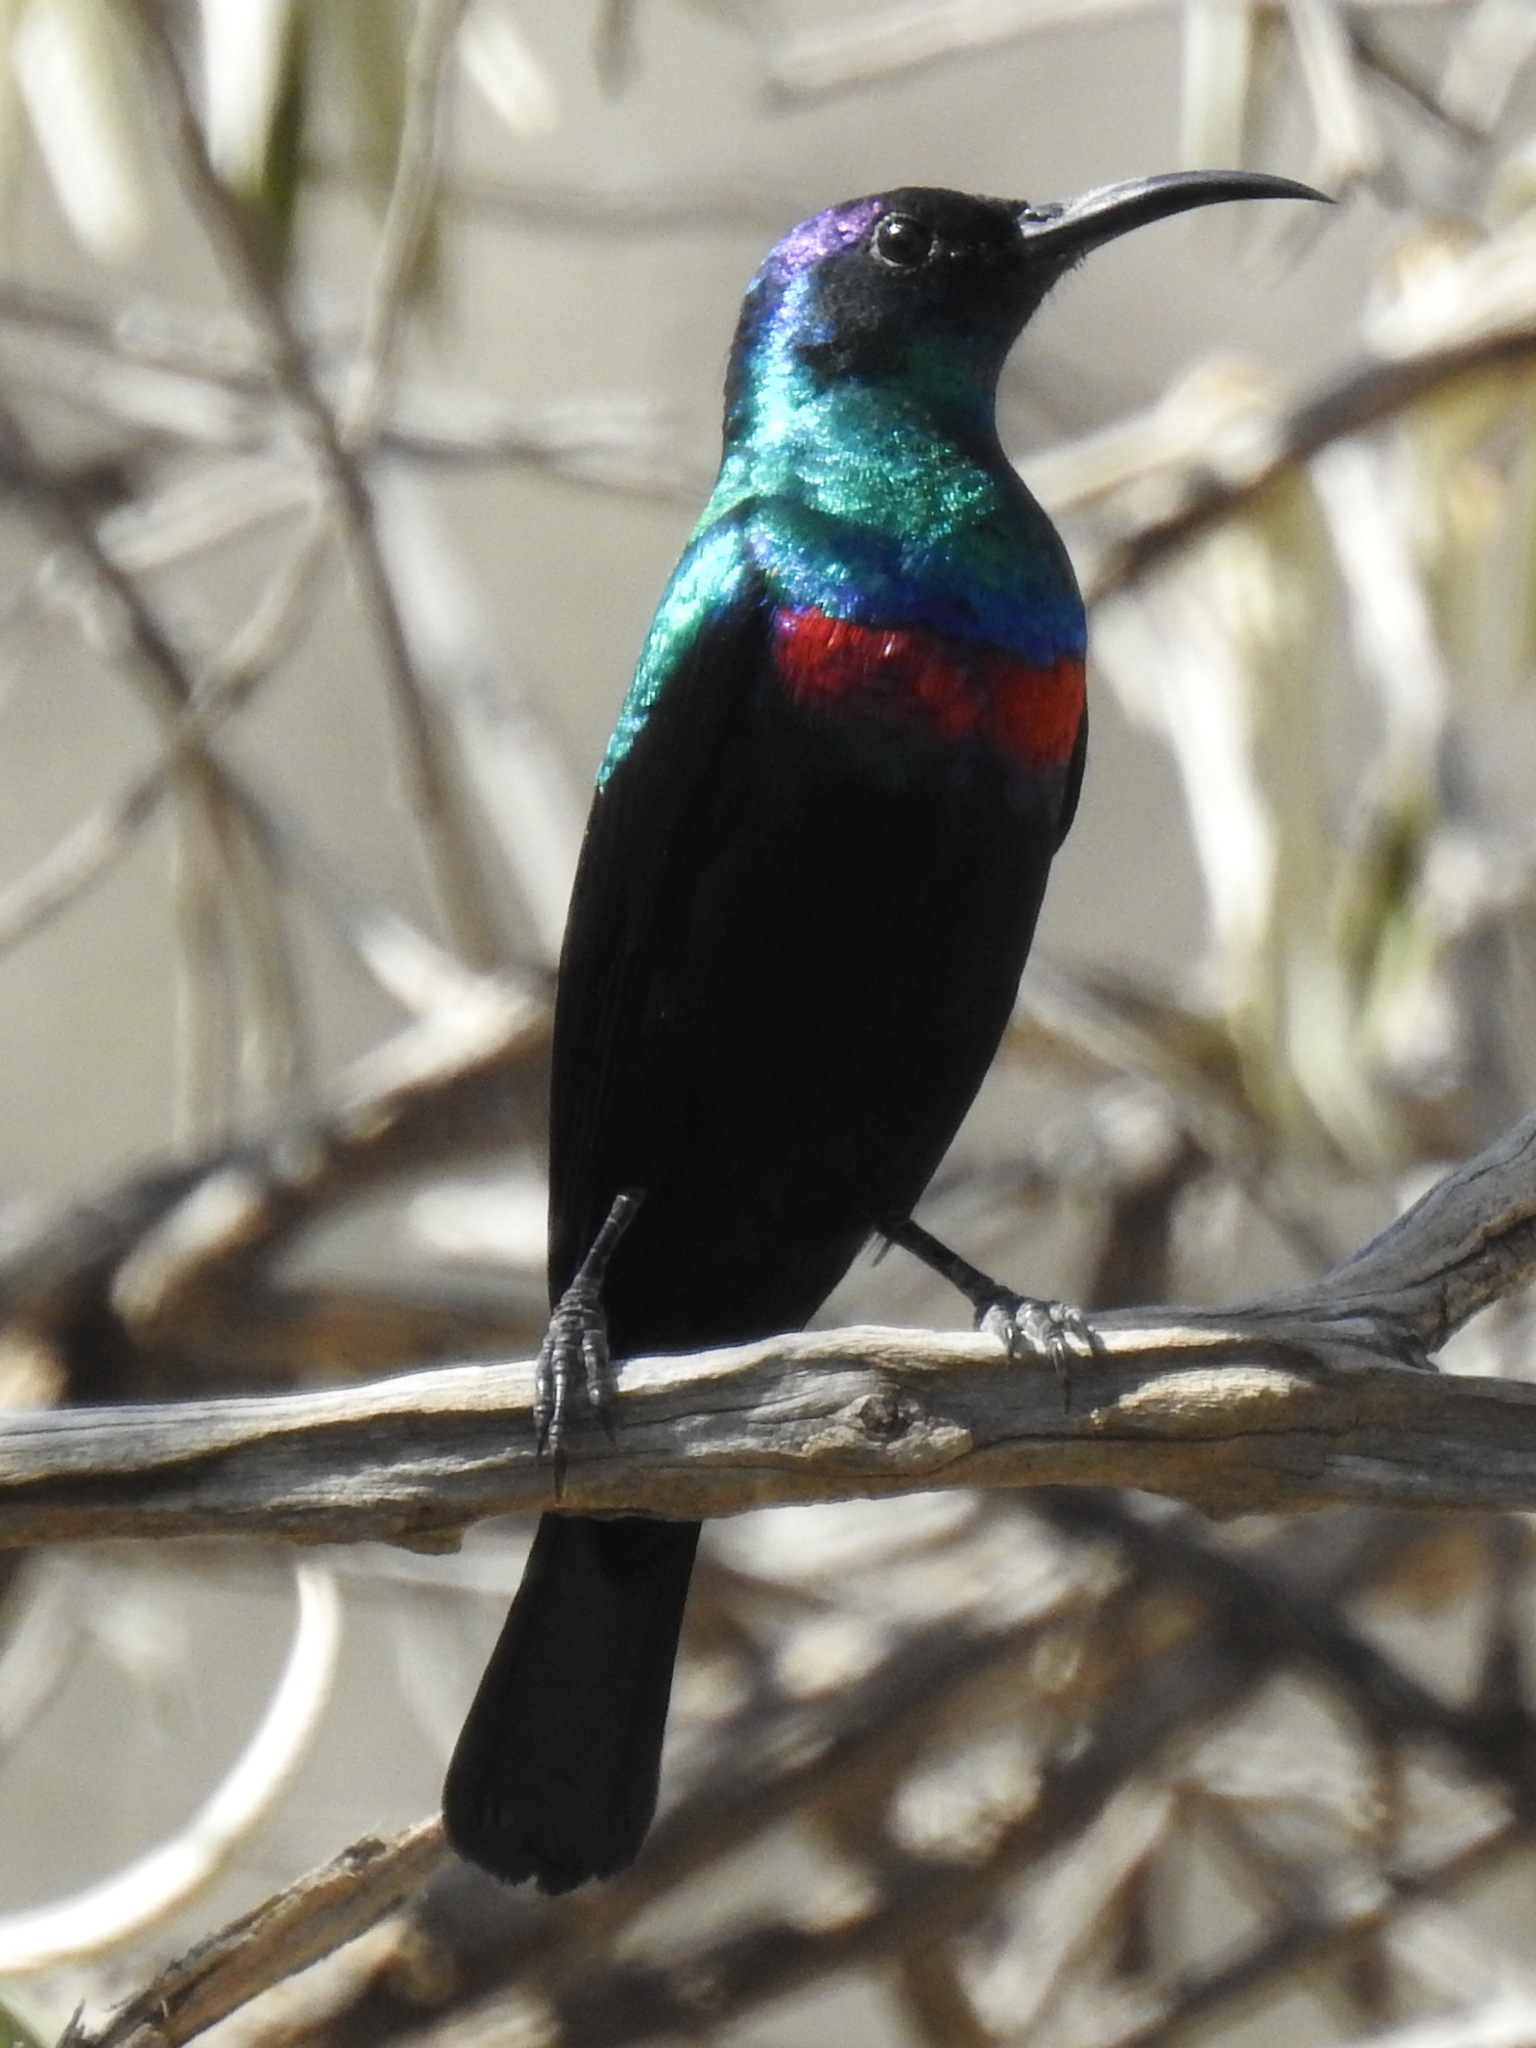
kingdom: Animalia
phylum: Chordata
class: Aves
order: Passeriformes
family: Nectariniidae
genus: Cinnyris
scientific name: Cinnyris habessinicus
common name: Shining sunbird
